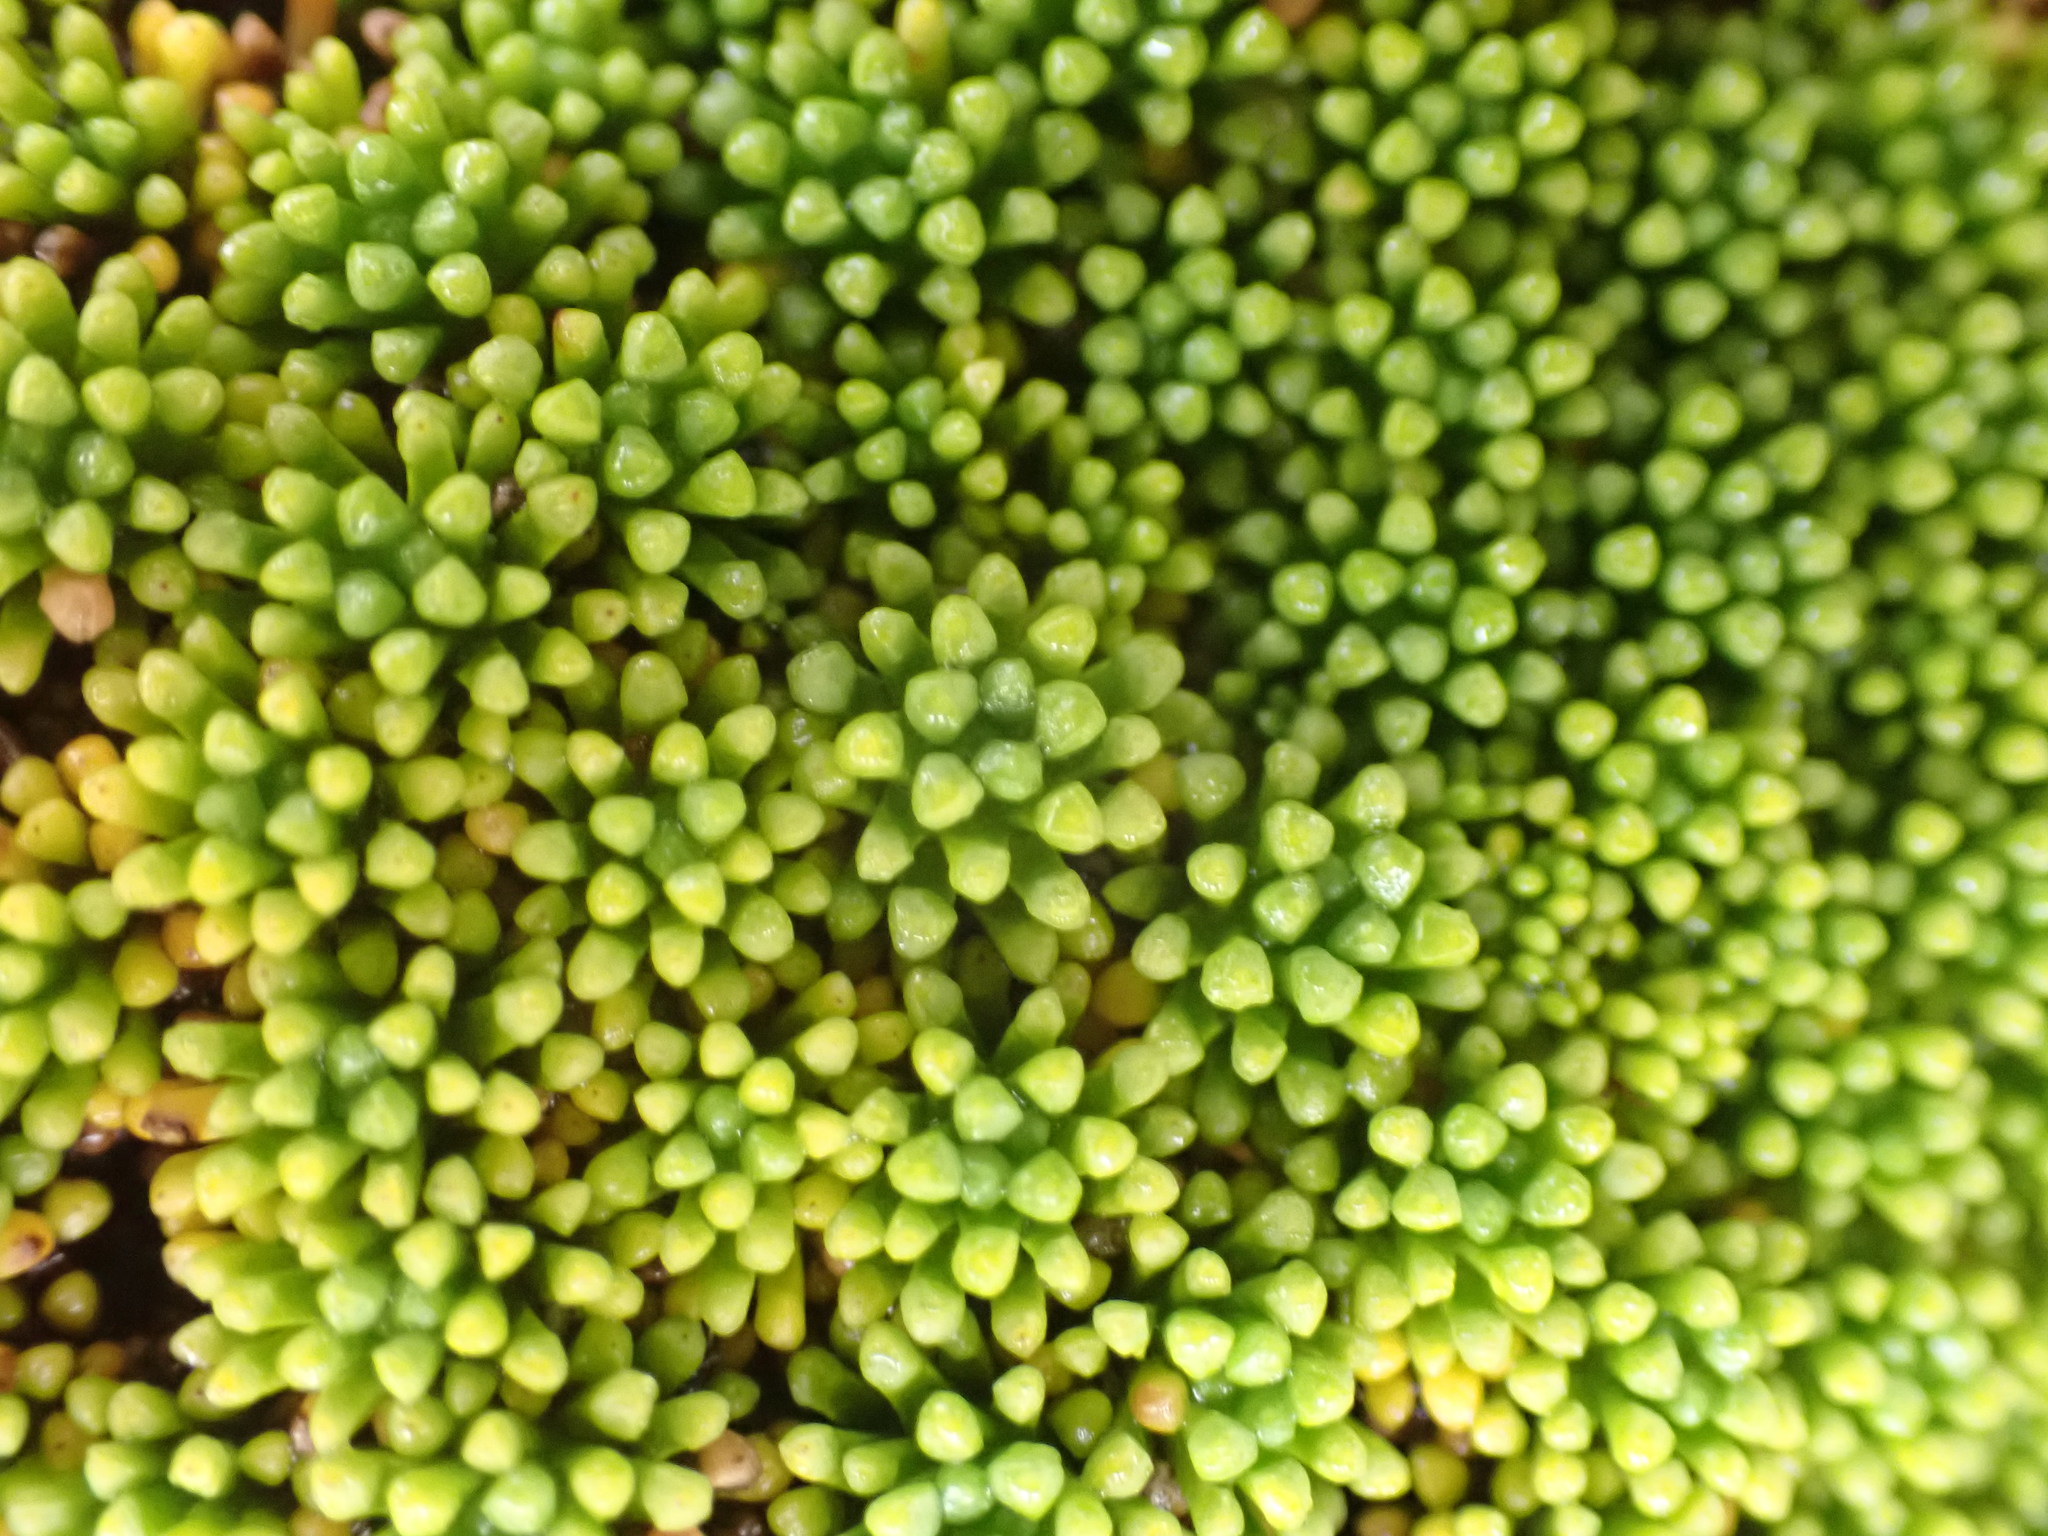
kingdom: Plantae
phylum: Tracheophyta
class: Magnoliopsida
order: Asterales
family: Stylidiaceae
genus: Phyllachne
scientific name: Phyllachne colensoi
